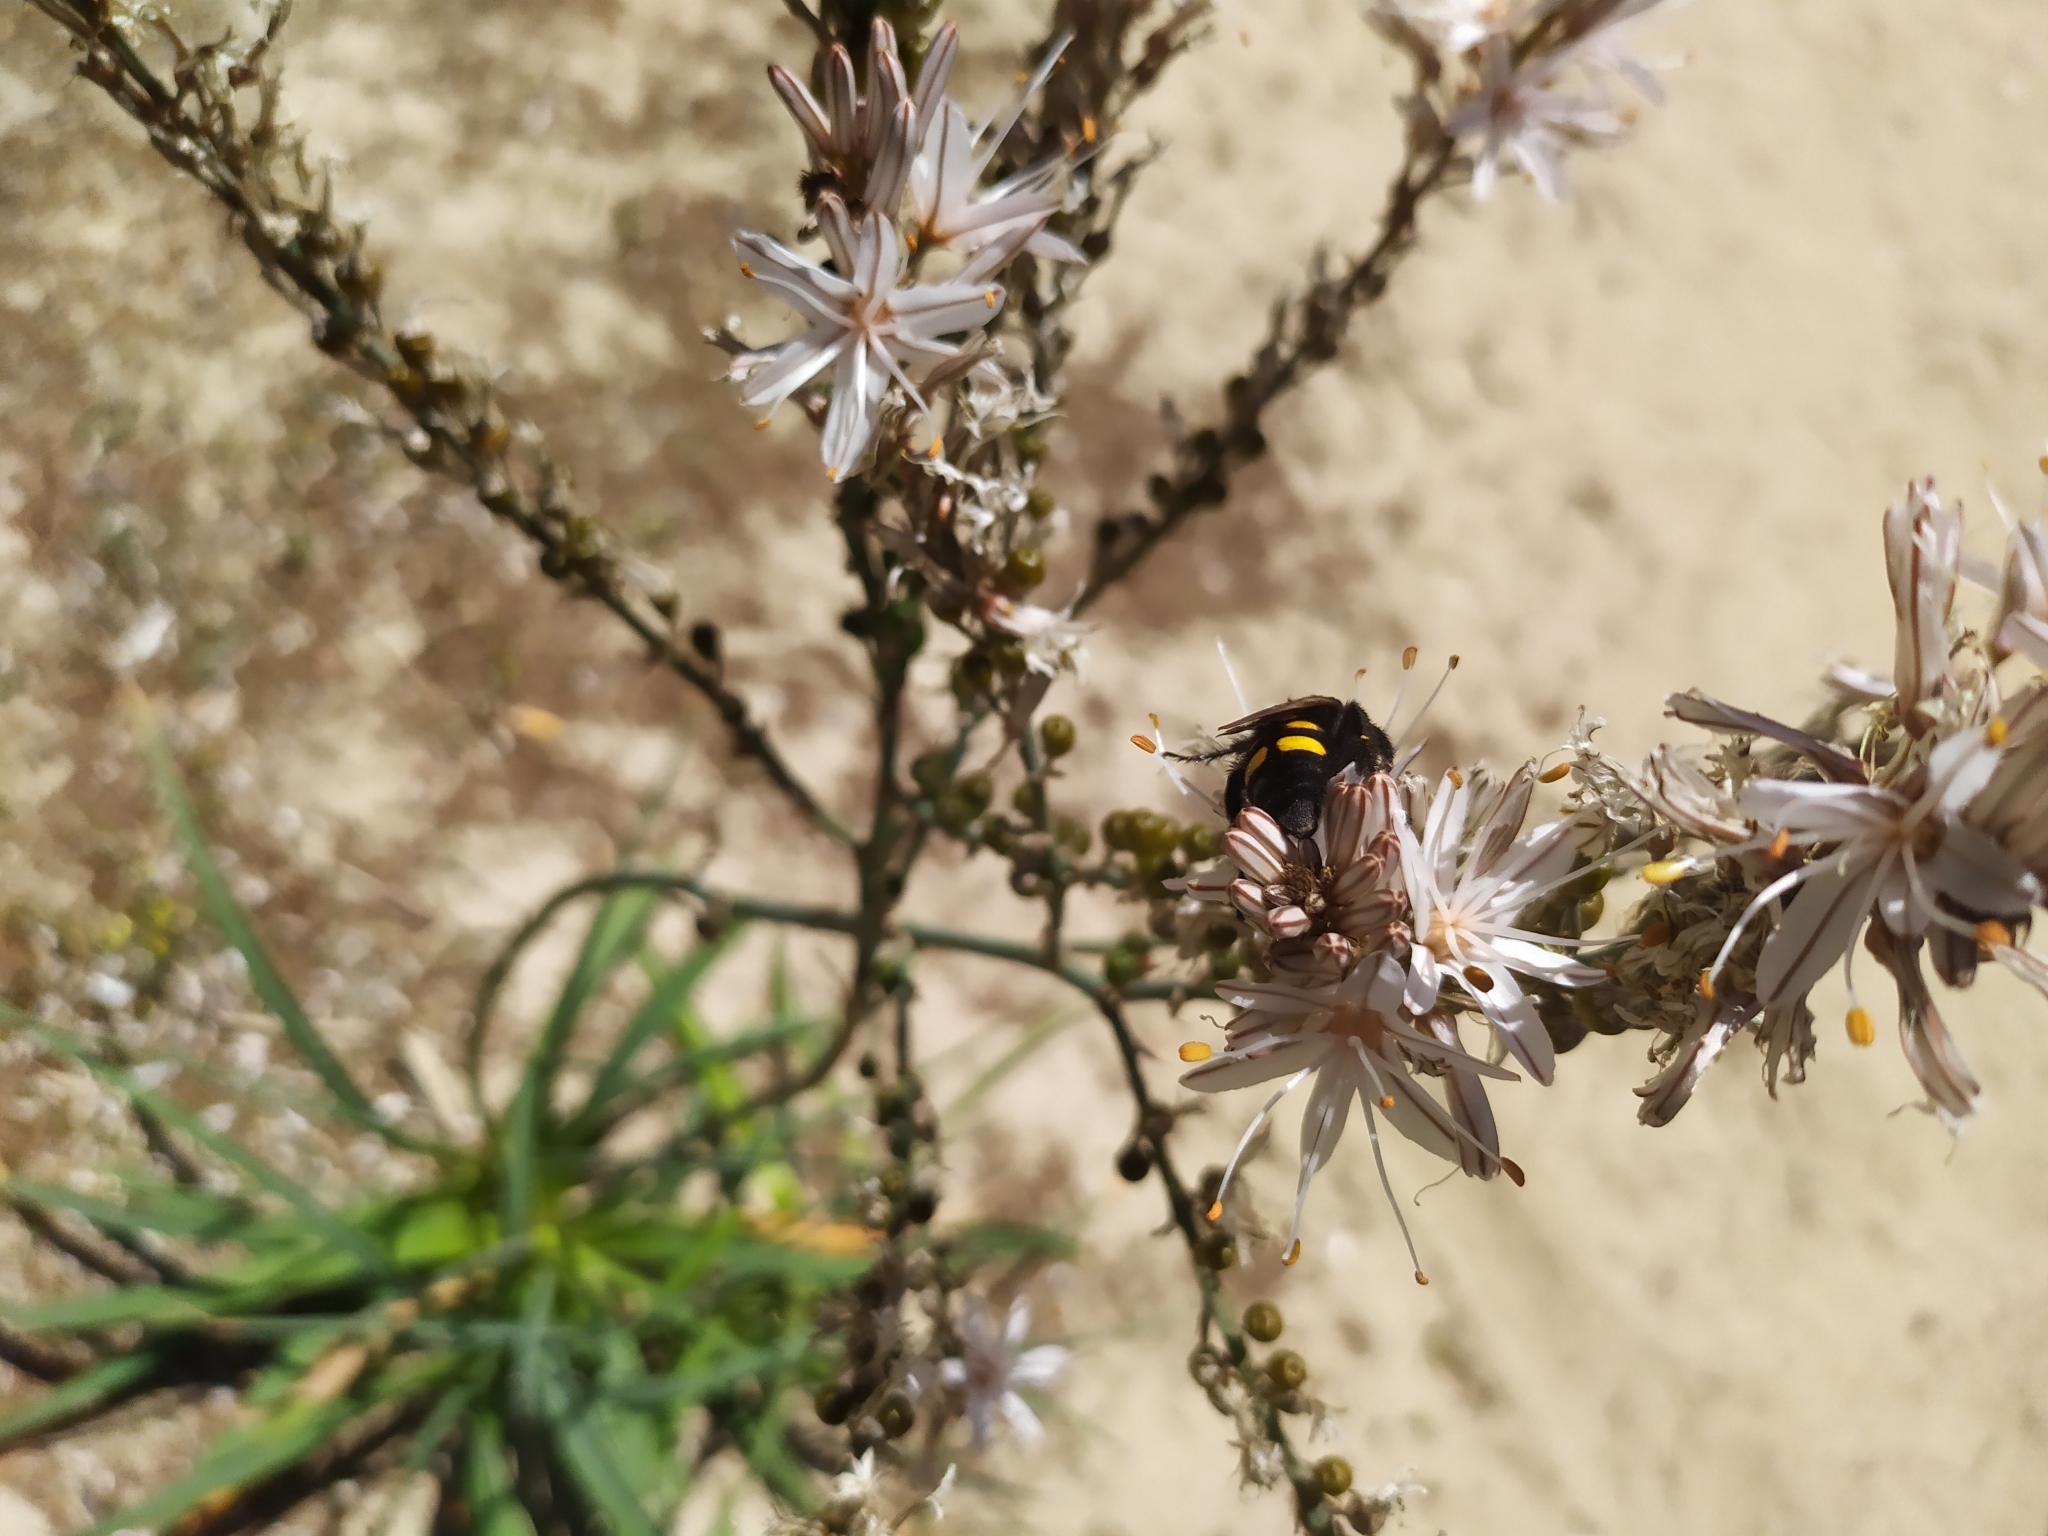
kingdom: Animalia
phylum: Arthropoda
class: Insecta
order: Hymenoptera
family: Scoliidae
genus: Megascolia
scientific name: Megascolia bidens
